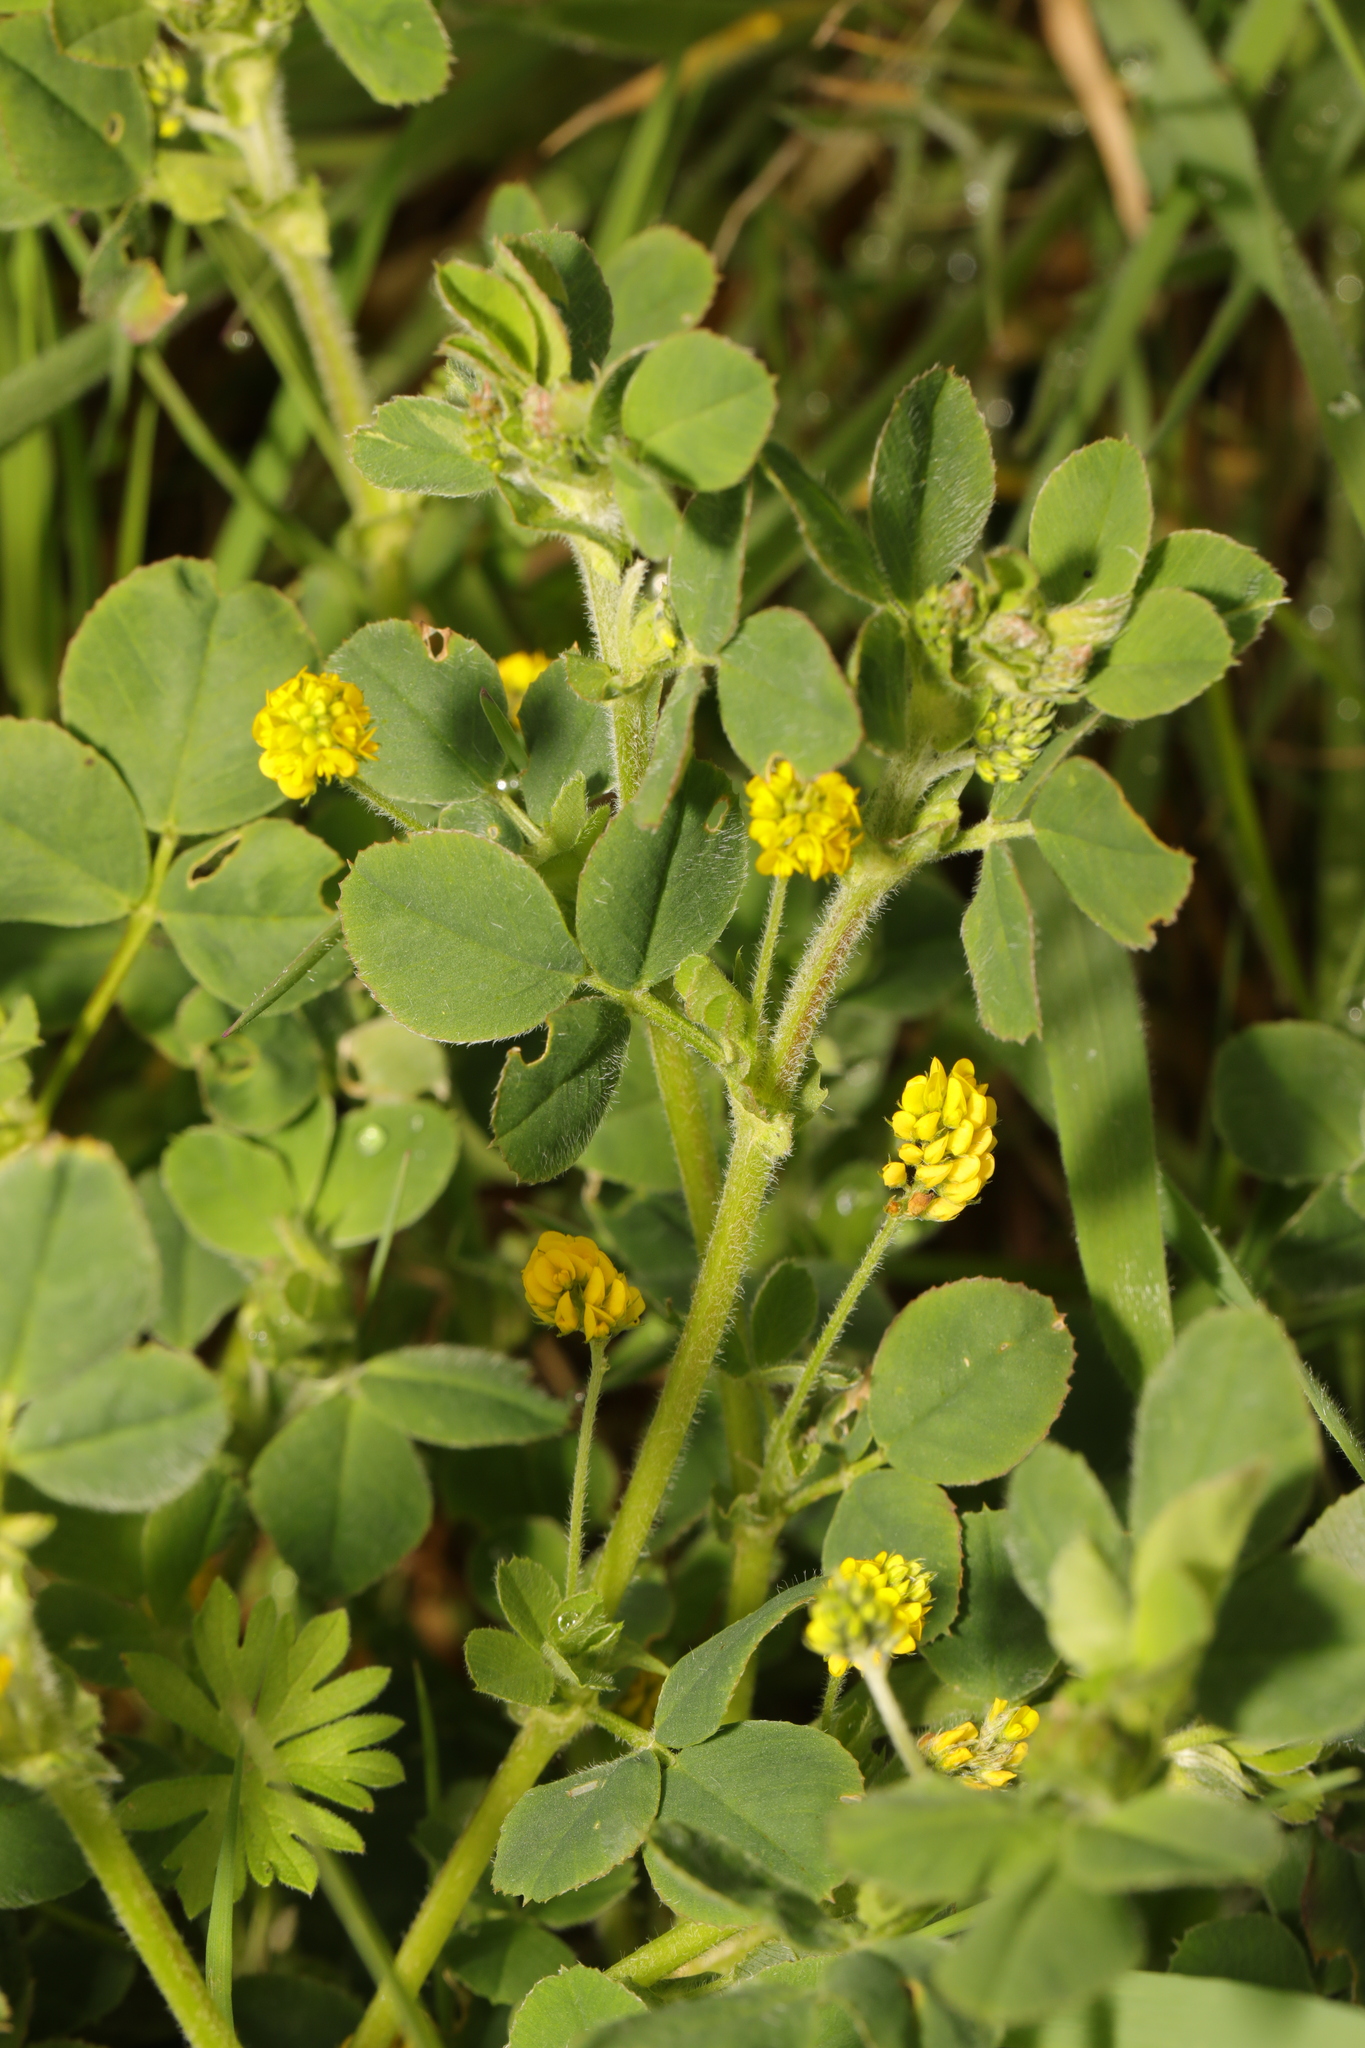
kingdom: Plantae
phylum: Tracheophyta
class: Magnoliopsida
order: Fabales
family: Fabaceae
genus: Medicago
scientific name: Medicago lupulina
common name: Black medick
